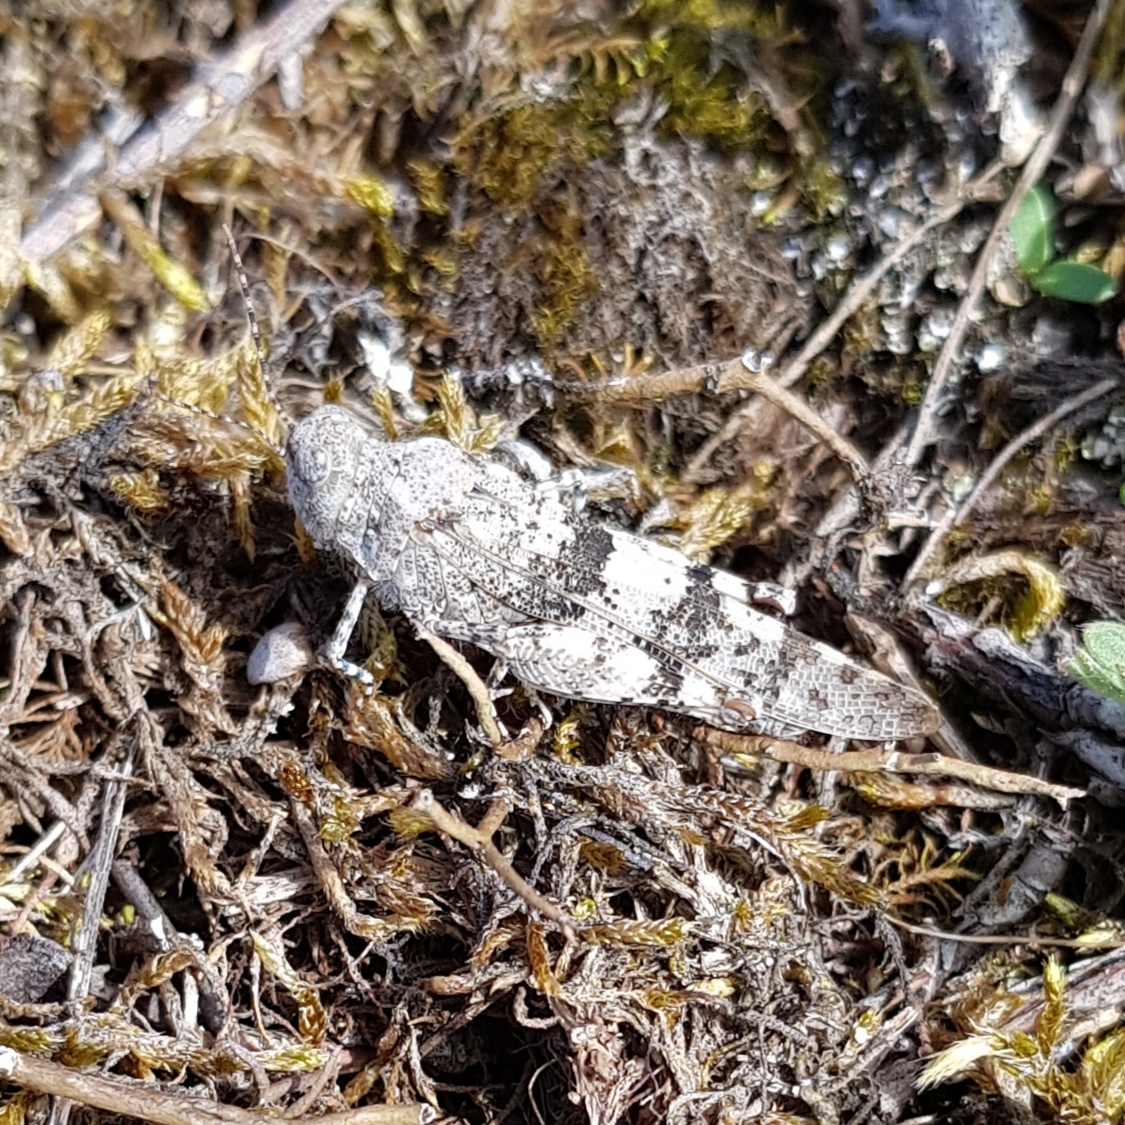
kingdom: Animalia
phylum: Arthropoda
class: Insecta
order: Orthoptera
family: Acrididae
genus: Sphingonotus
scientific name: Sphingonotus caerulans
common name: Blue-winged locust
